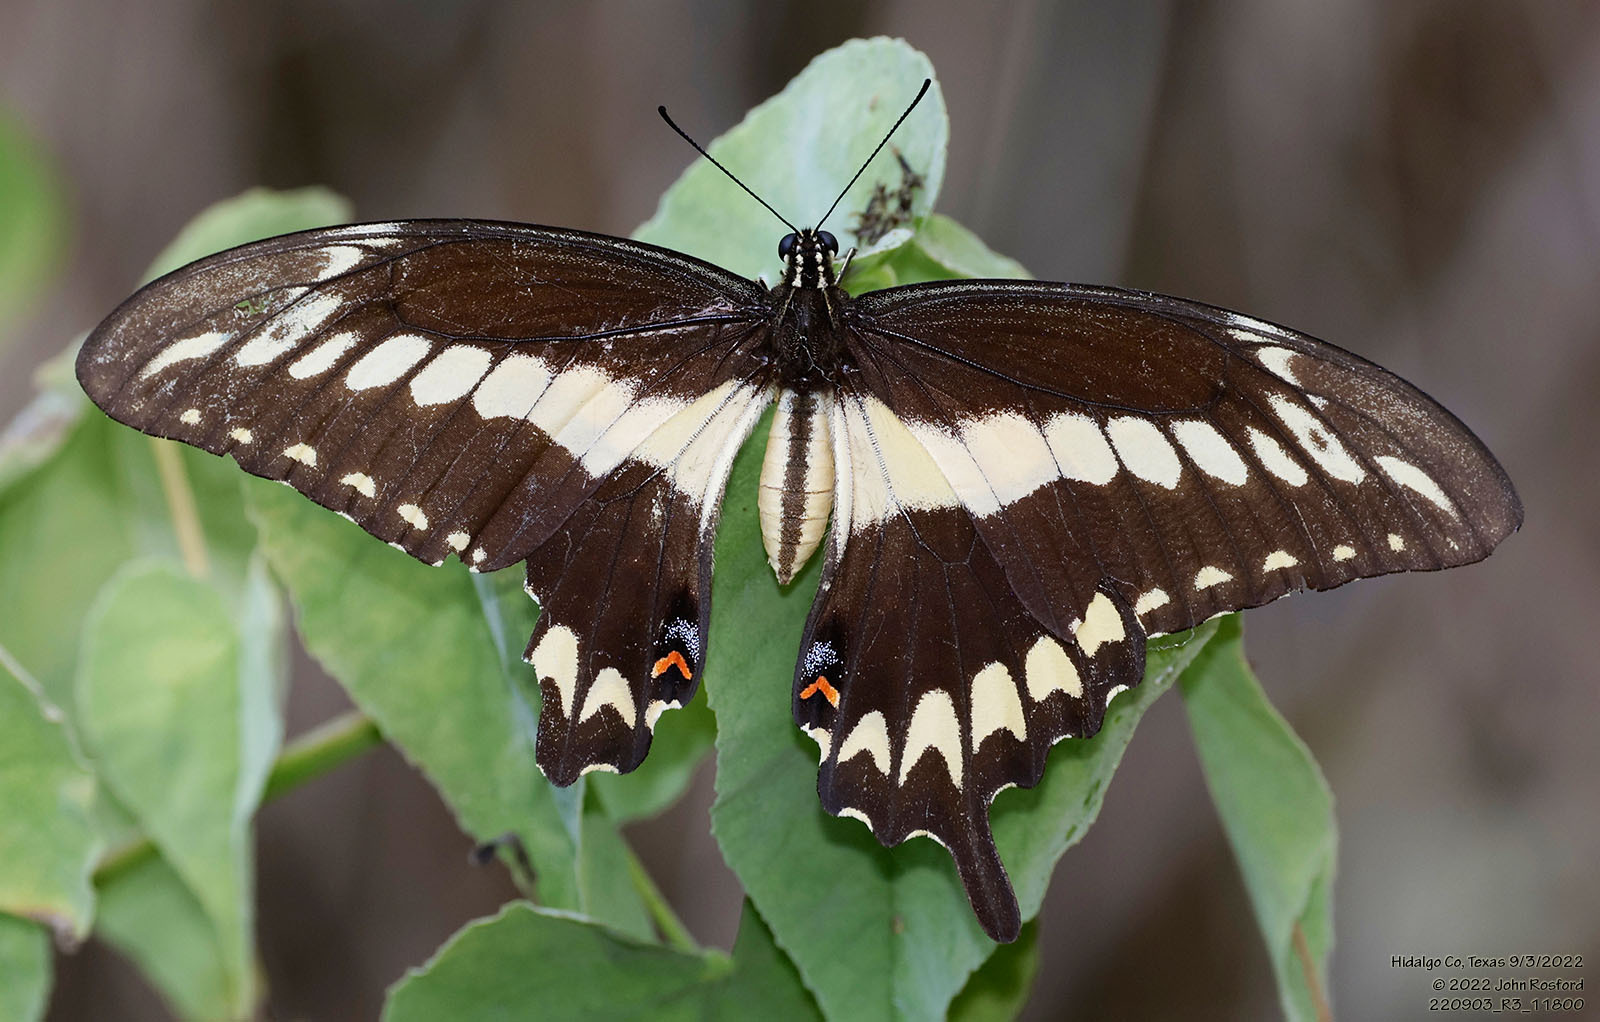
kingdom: Animalia
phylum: Arthropoda
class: Insecta
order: Lepidoptera
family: Papilionidae
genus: Papilio
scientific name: Papilio ornythion
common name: Ornythion swallowtail
